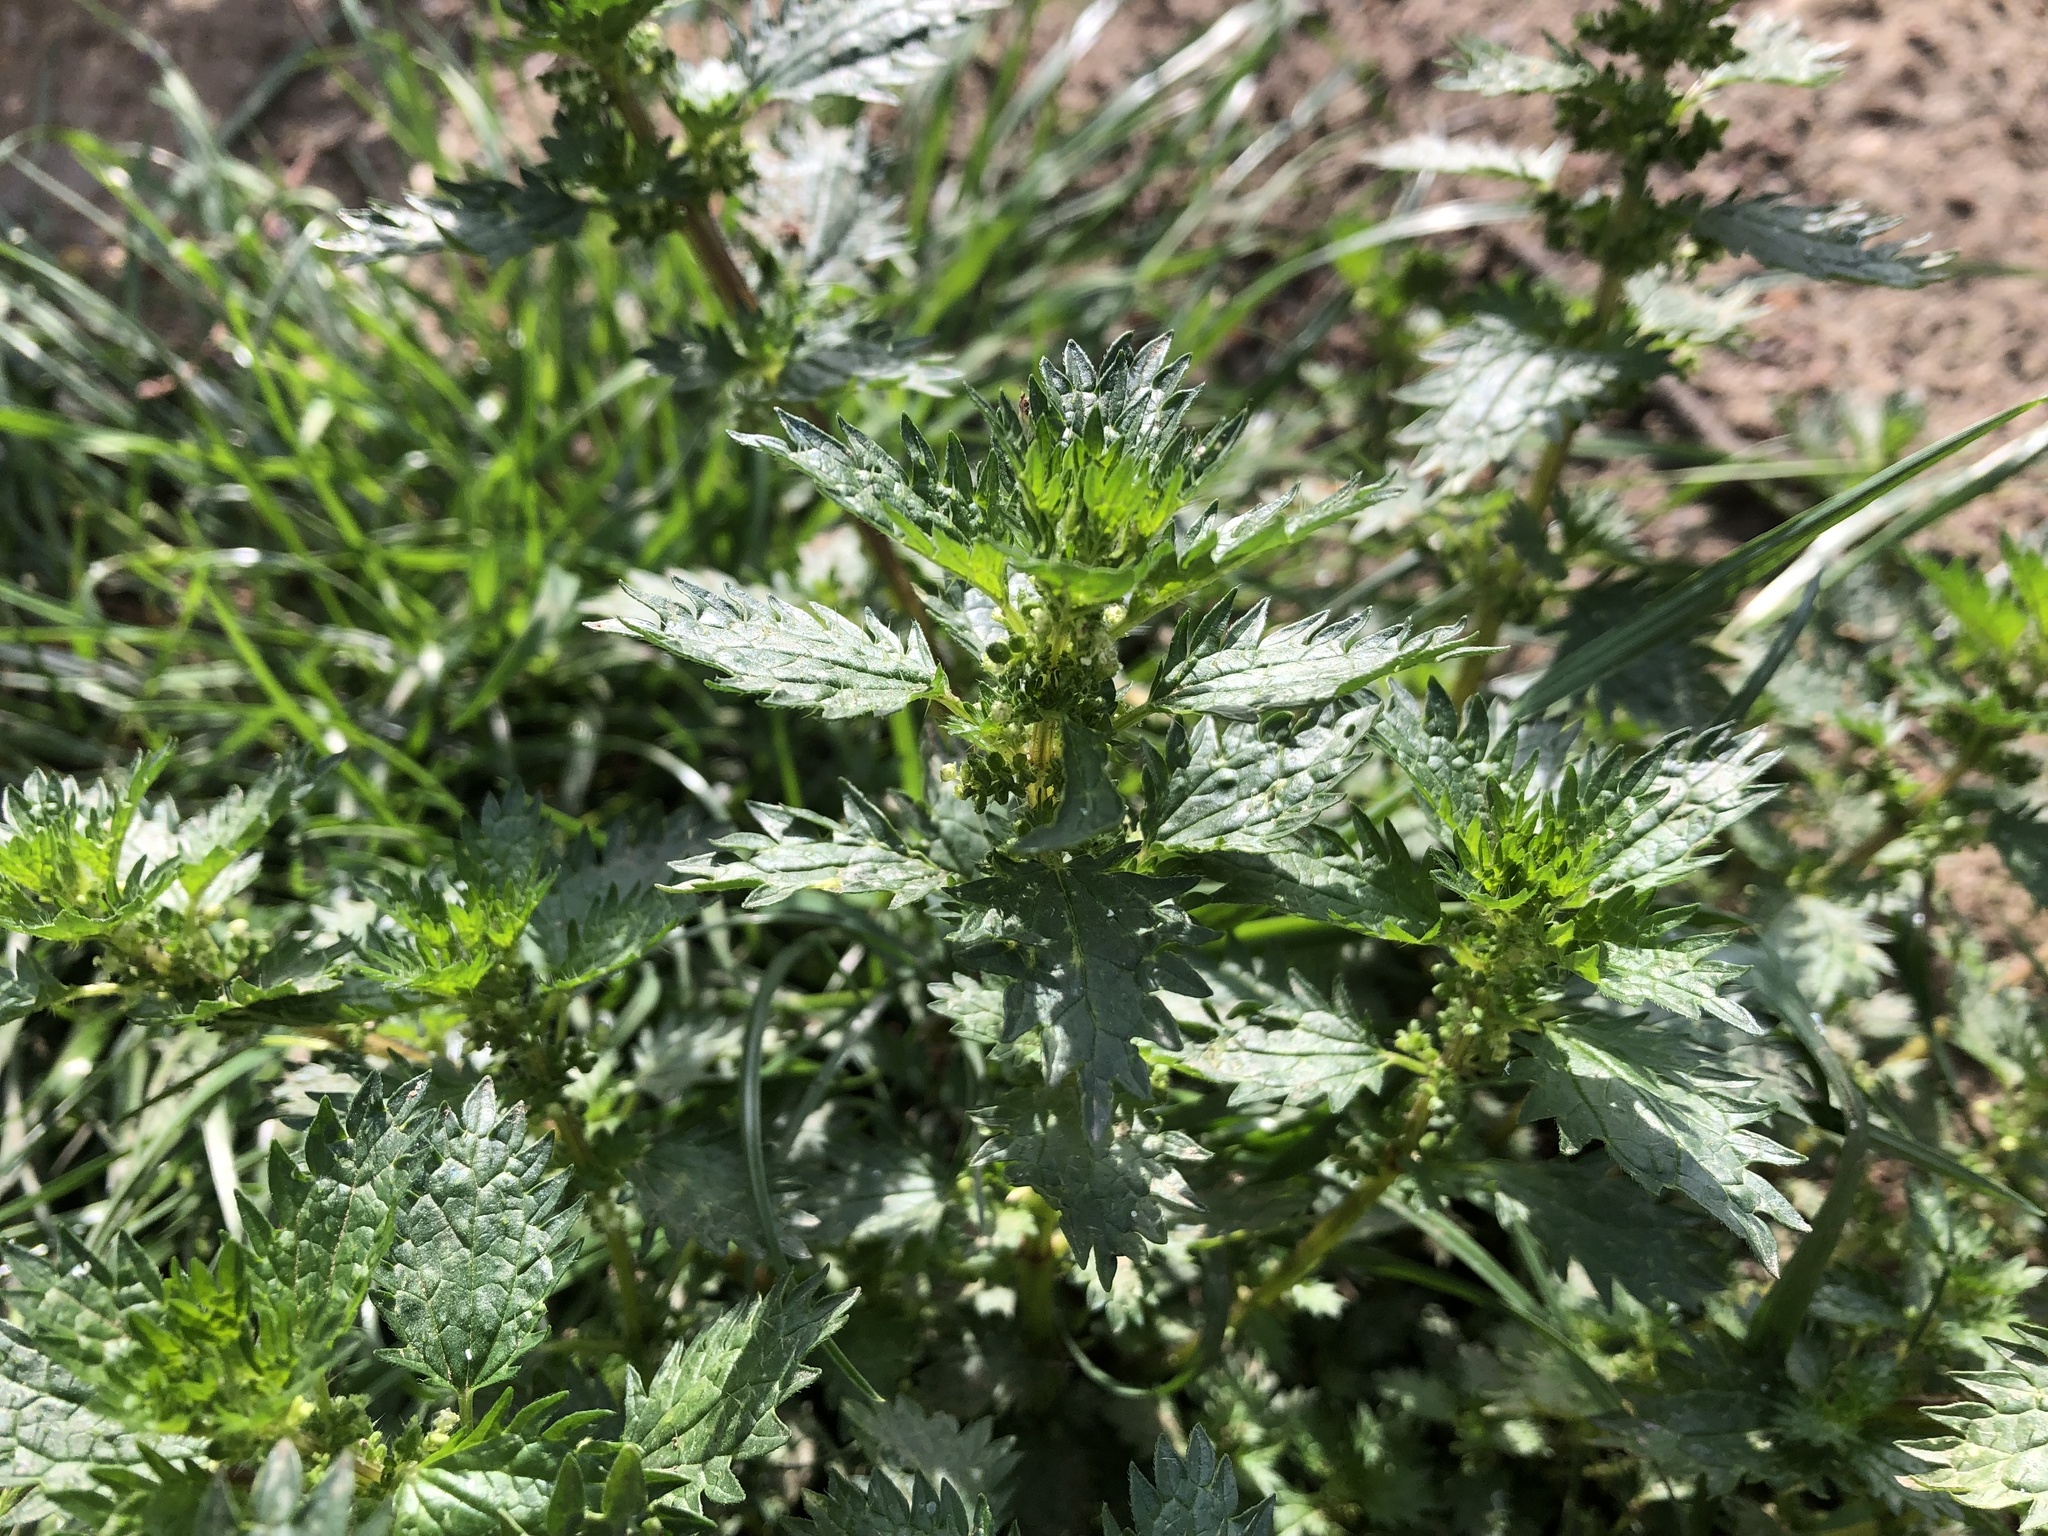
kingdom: Plantae
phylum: Tracheophyta
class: Magnoliopsida
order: Rosales
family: Urticaceae
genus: Urtica
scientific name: Urtica urens
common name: Dwarf nettle
